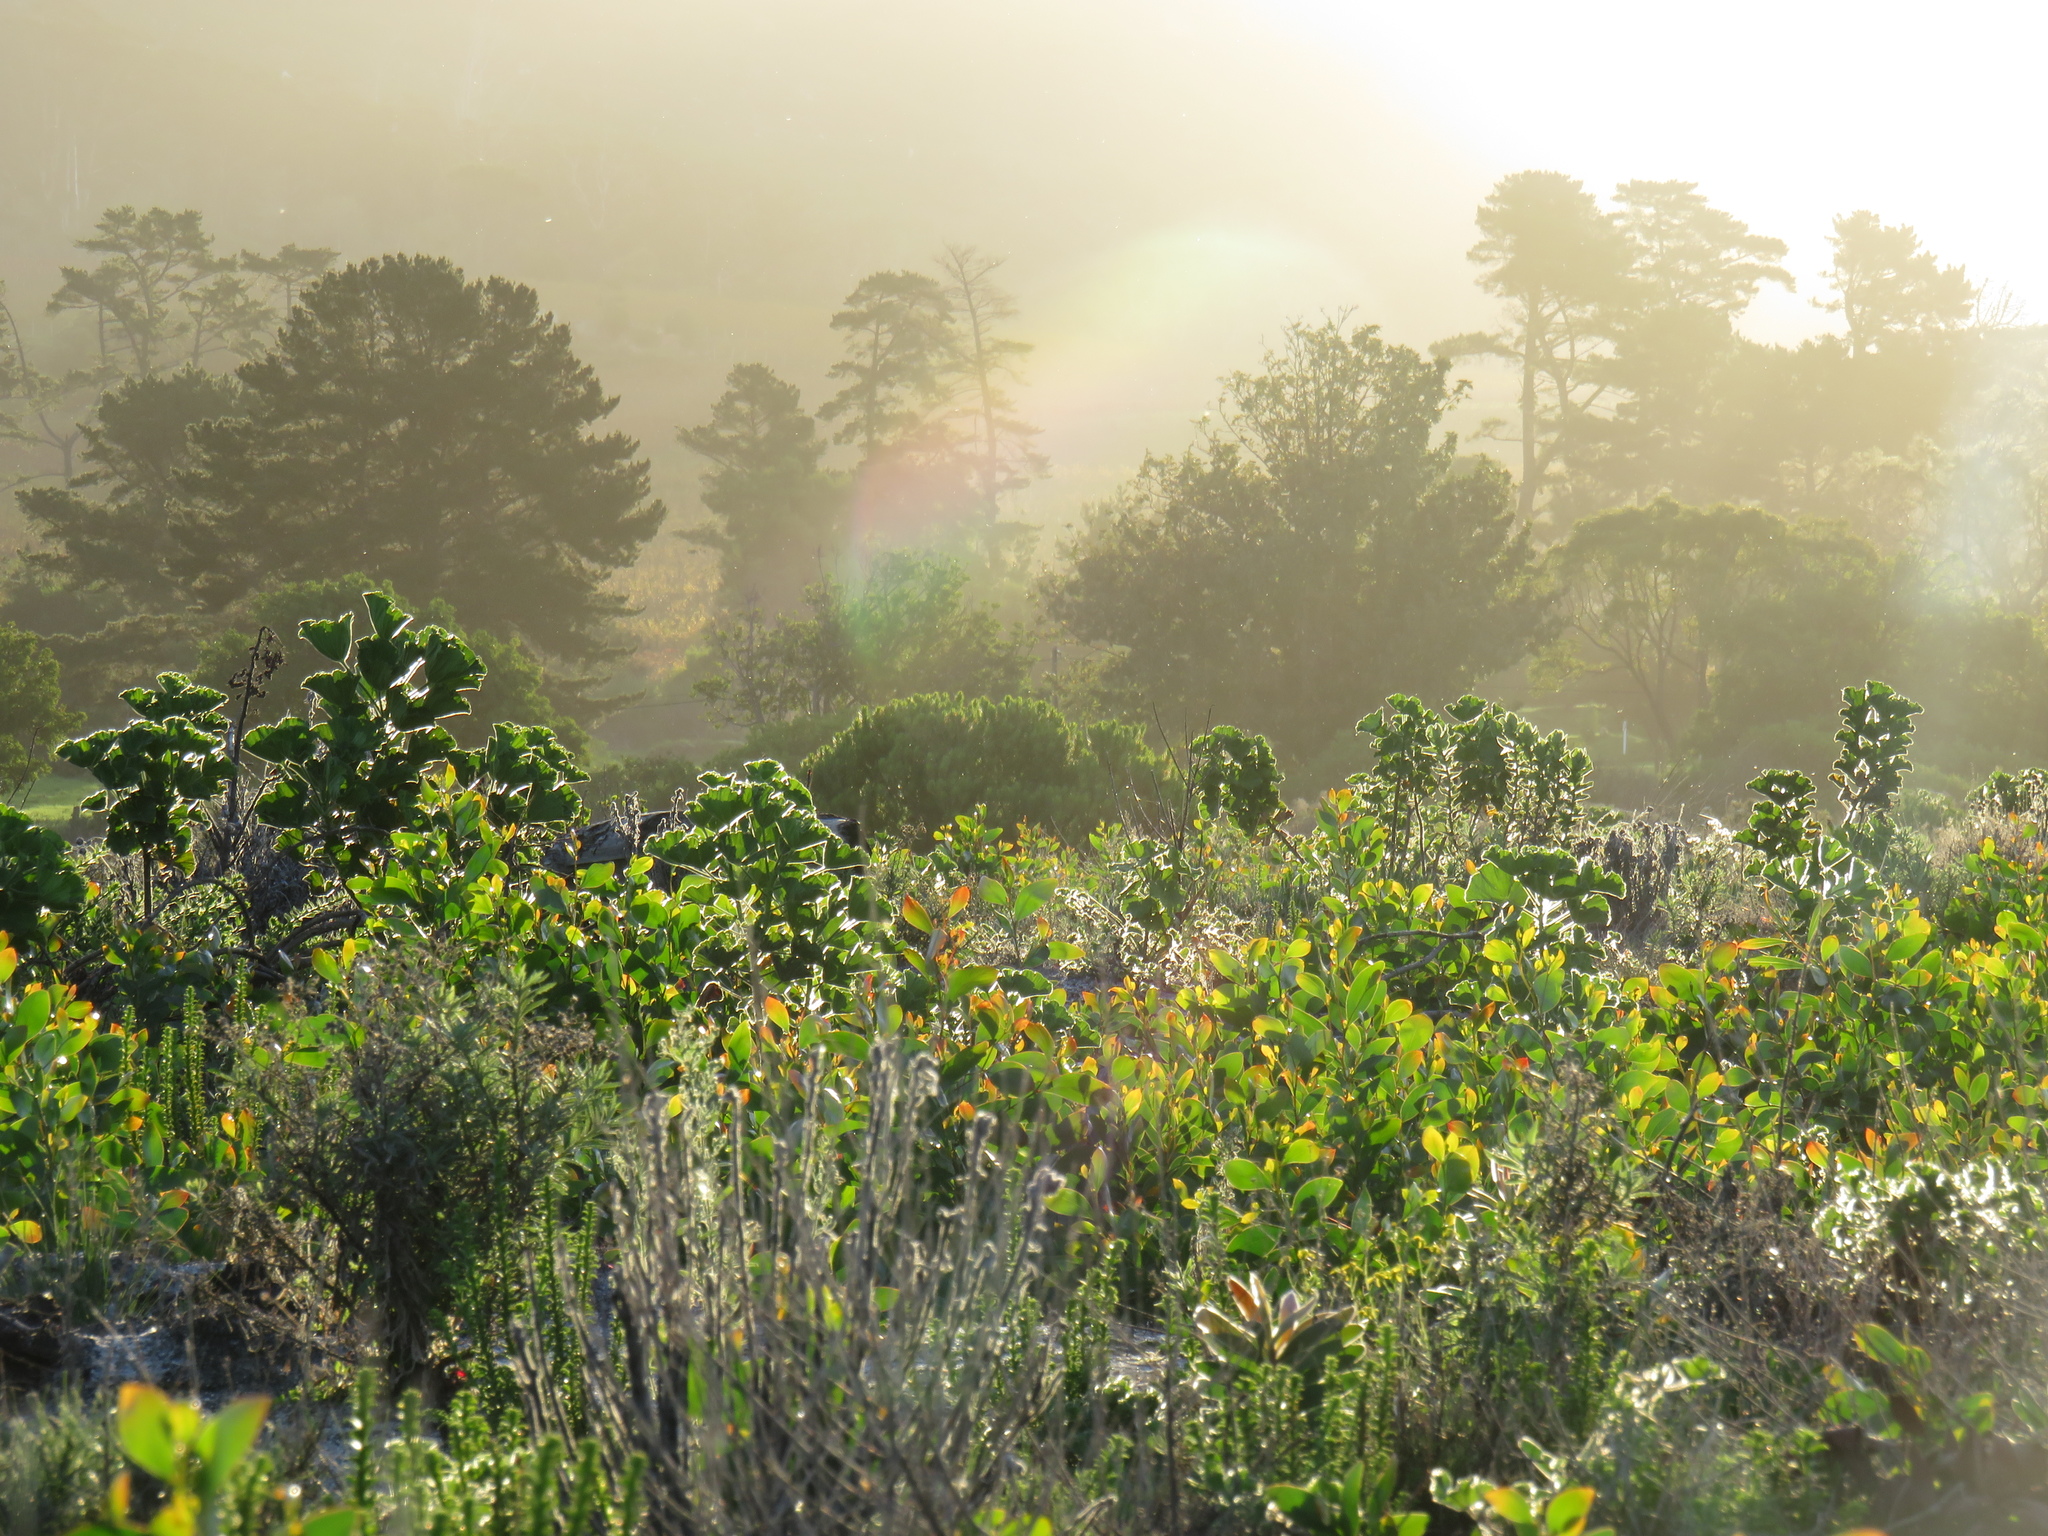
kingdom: Plantae
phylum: Tracheophyta
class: Magnoliopsida
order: Fabales
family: Fabaceae
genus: Acacia
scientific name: Acacia pycnantha
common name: Golden wattle
